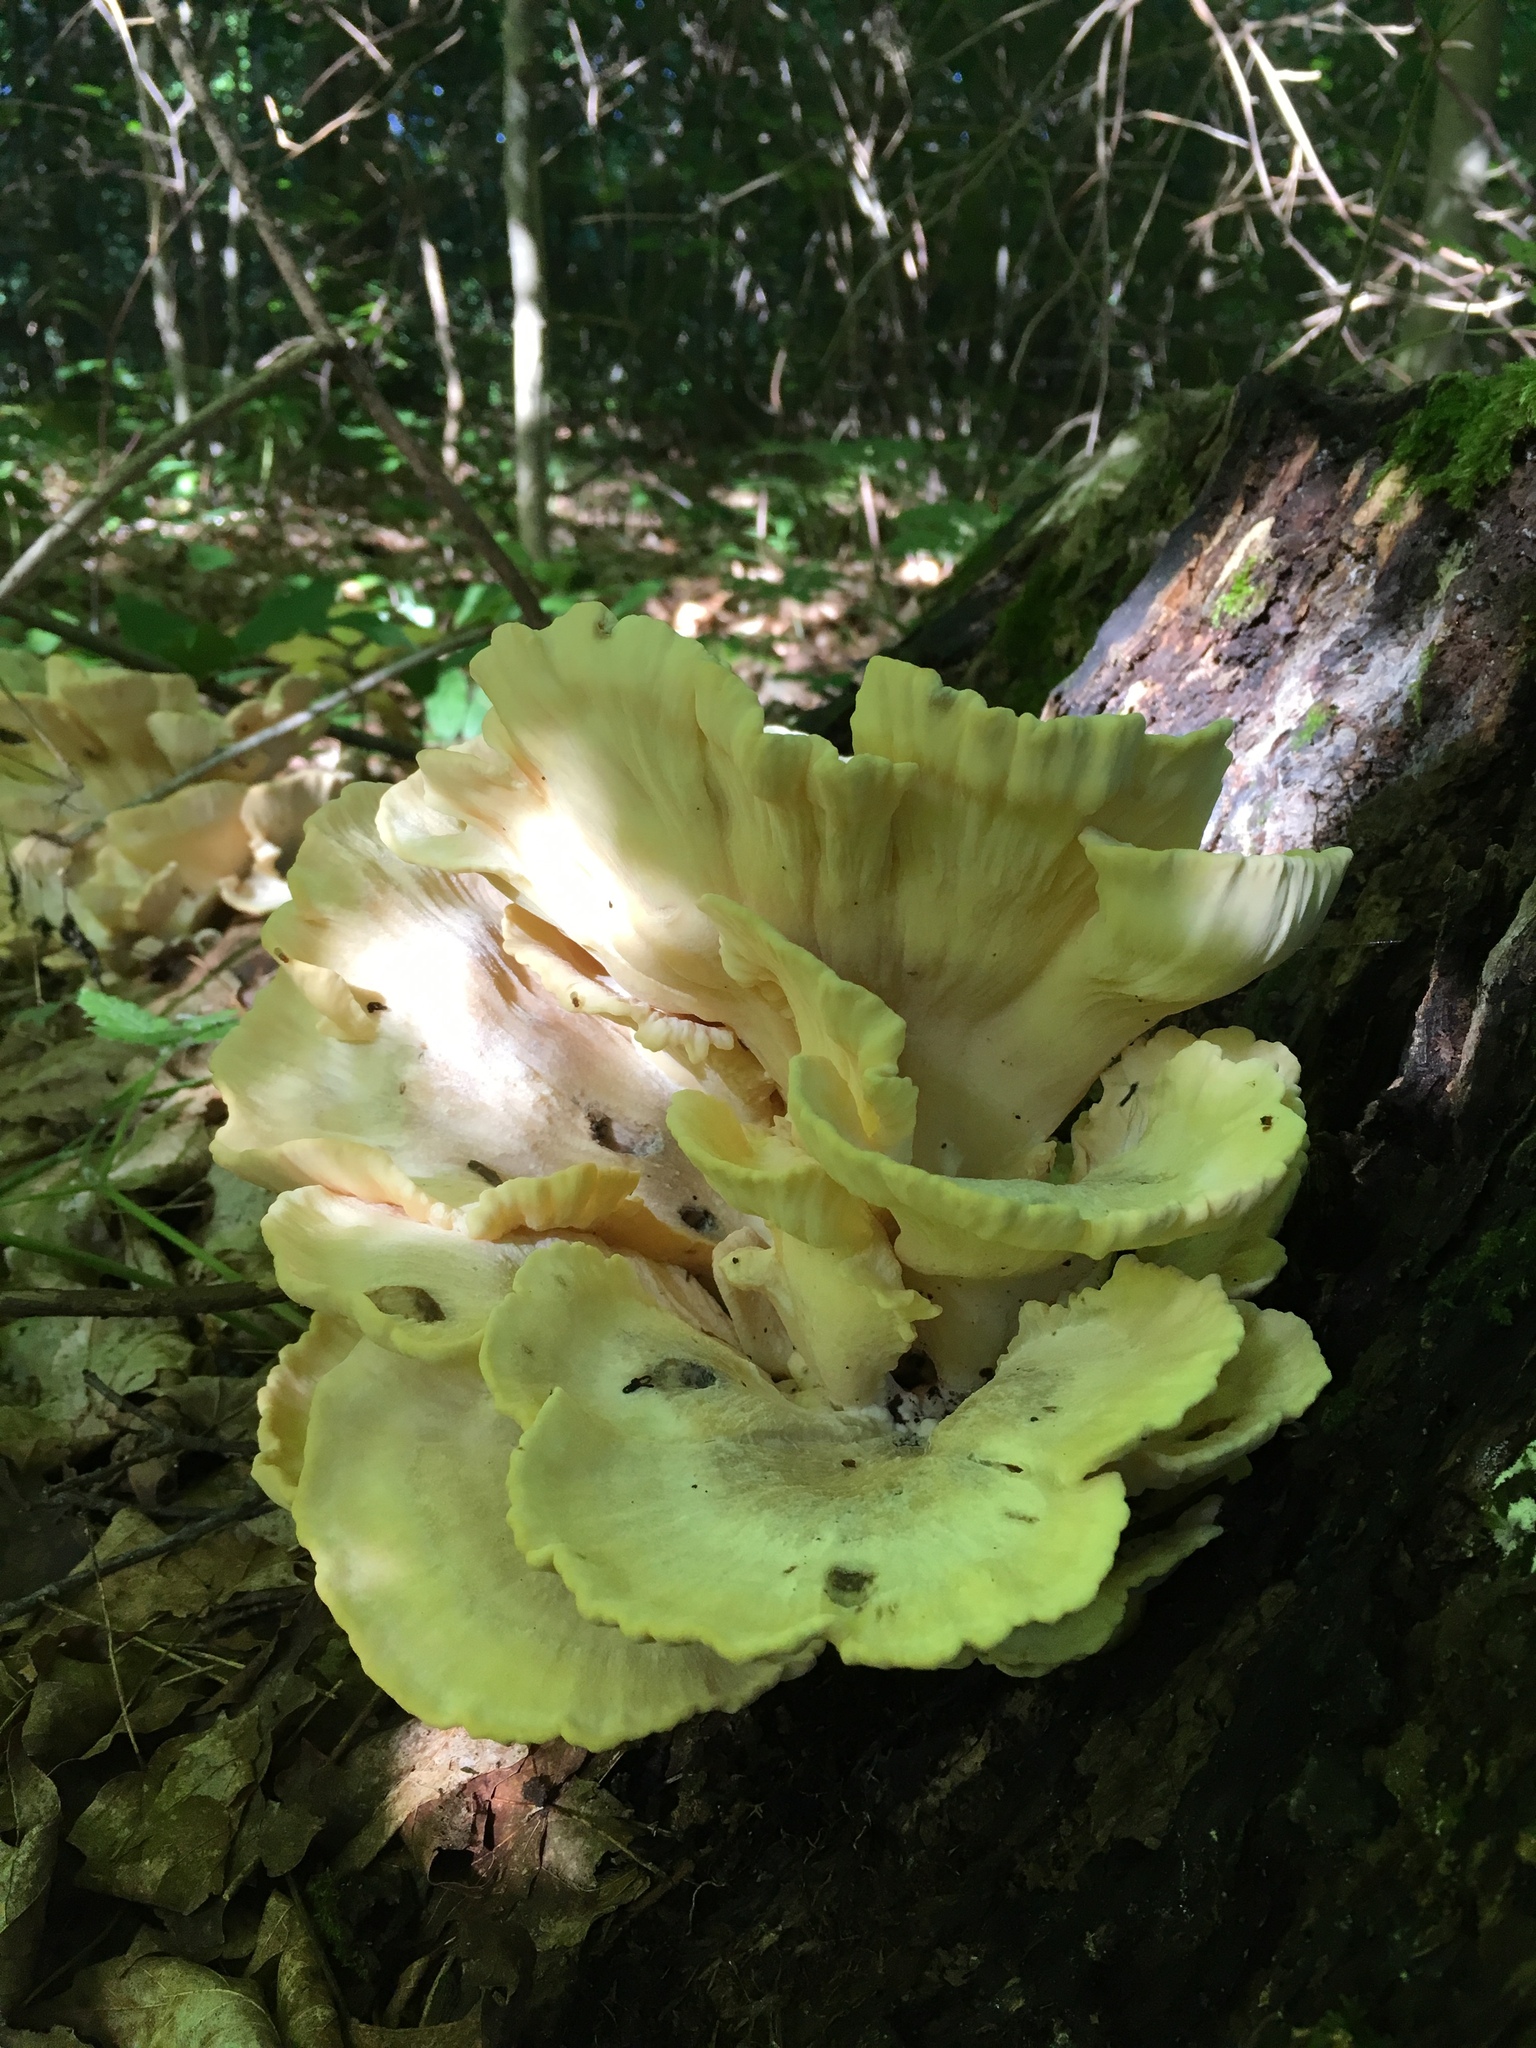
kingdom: Fungi
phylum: Basidiomycota
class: Agaricomycetes
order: Polyporales
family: Meripilaceae
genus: Meripilus
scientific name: Meripilus sumstinei
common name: Black-staining polypore
